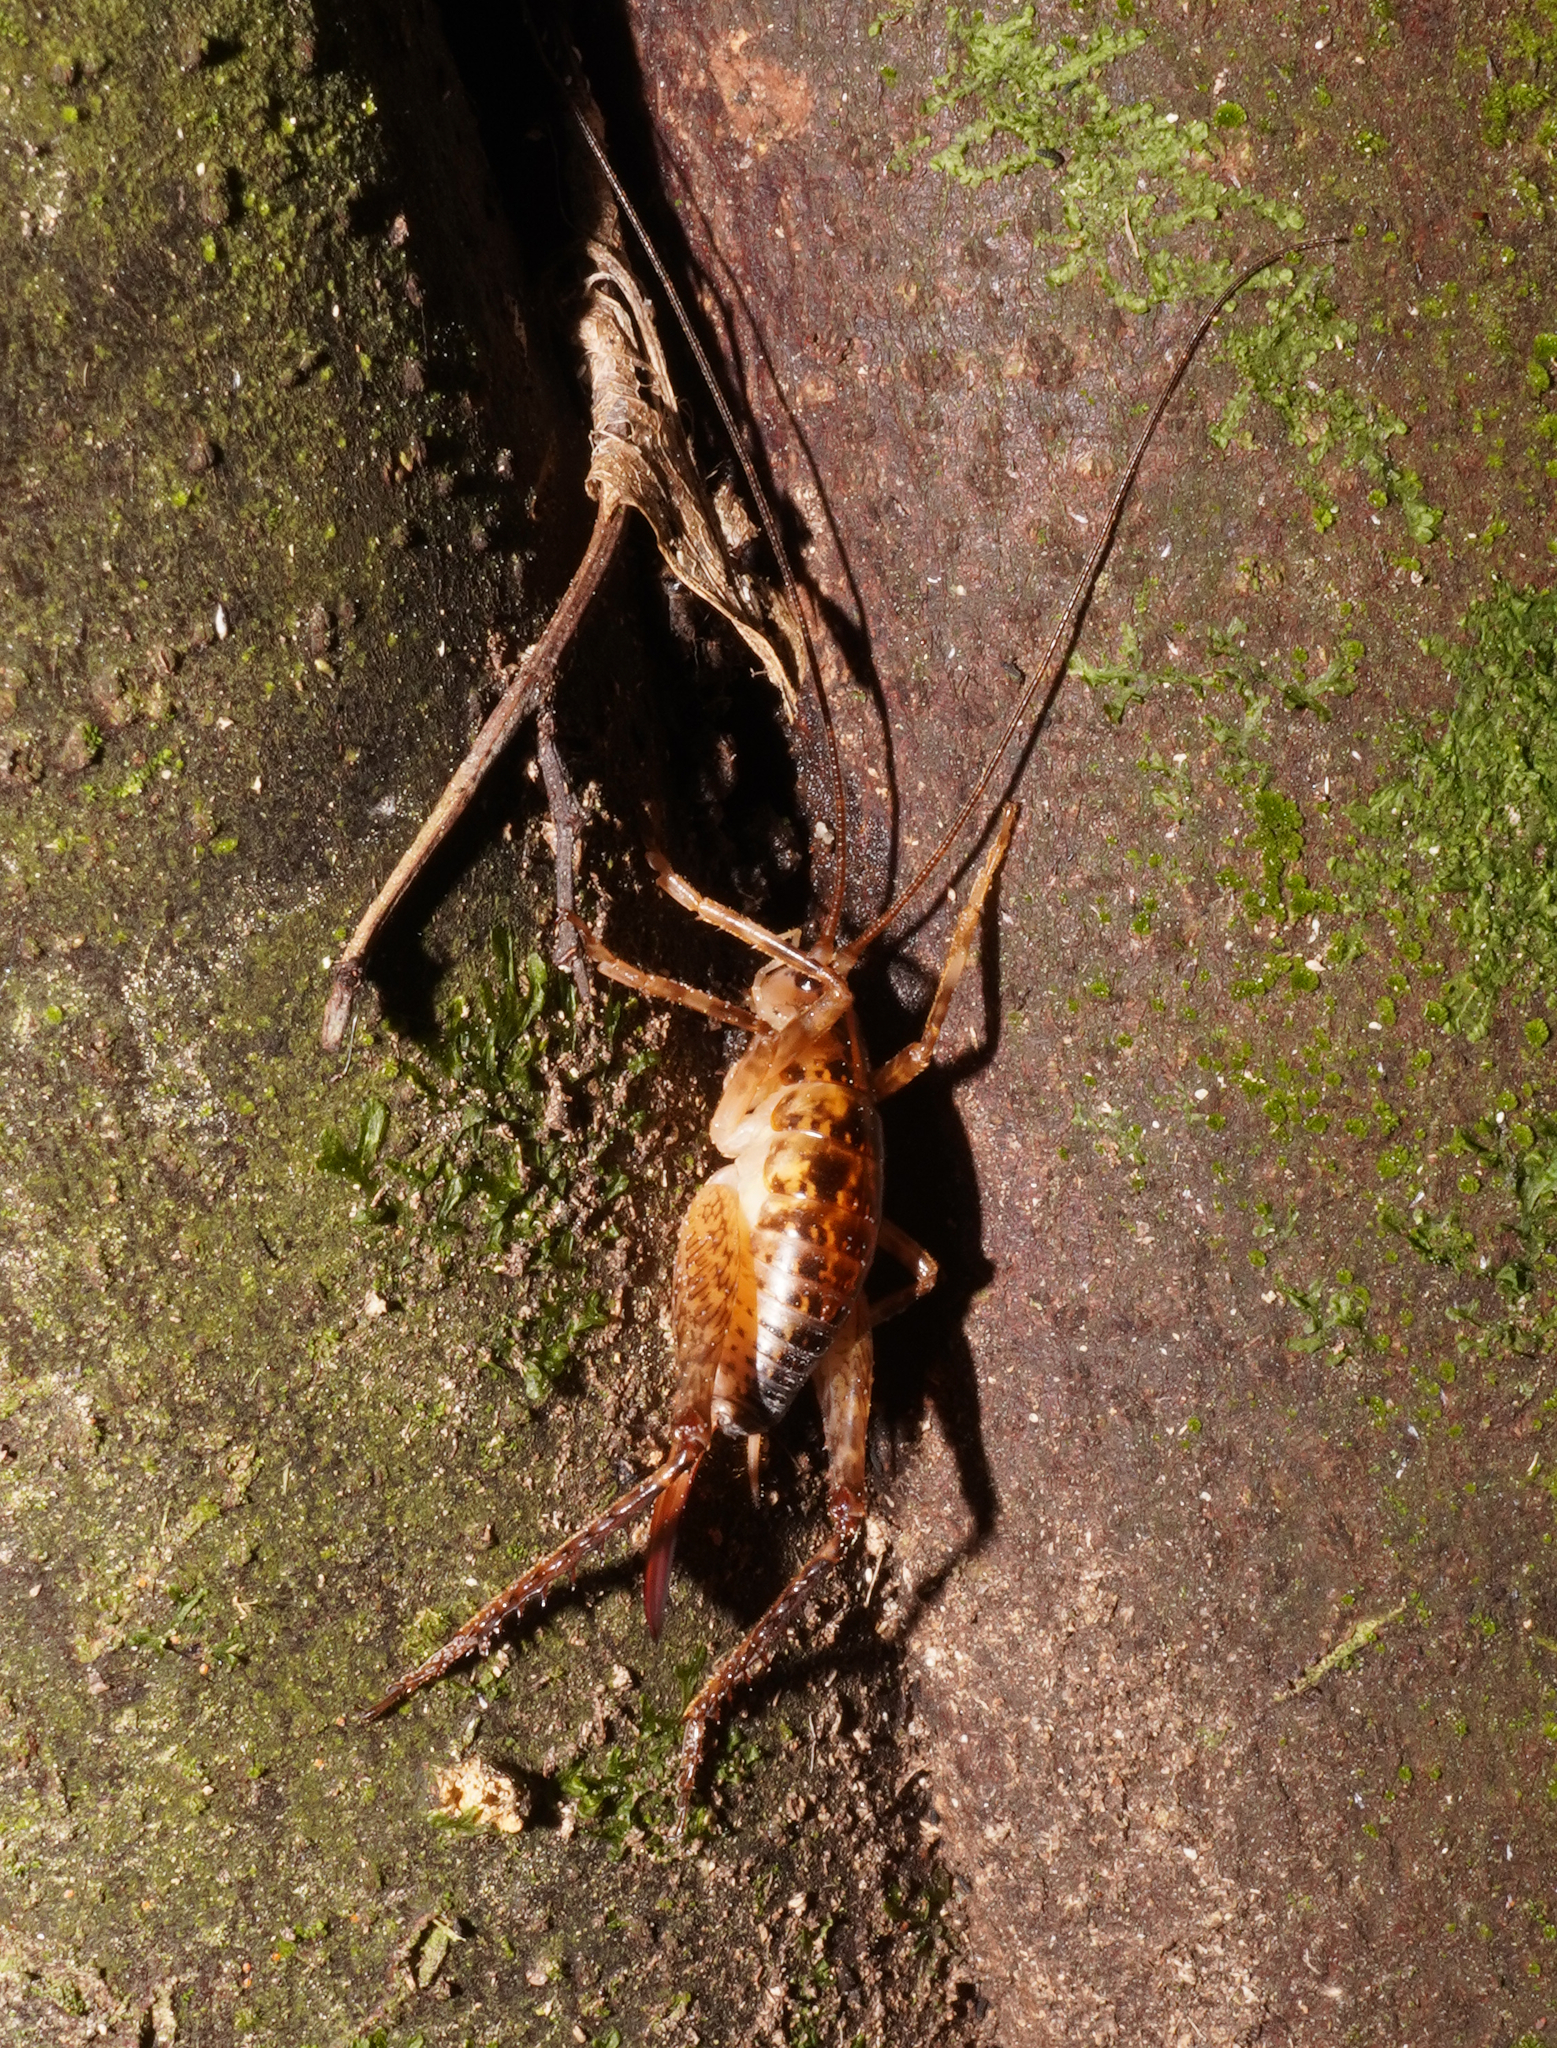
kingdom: Animalia
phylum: Arthropoda
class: Insecta
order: Orthoptera
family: Rhaphidophoridae
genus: Talitropsis
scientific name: Talitropsis sedilloti
